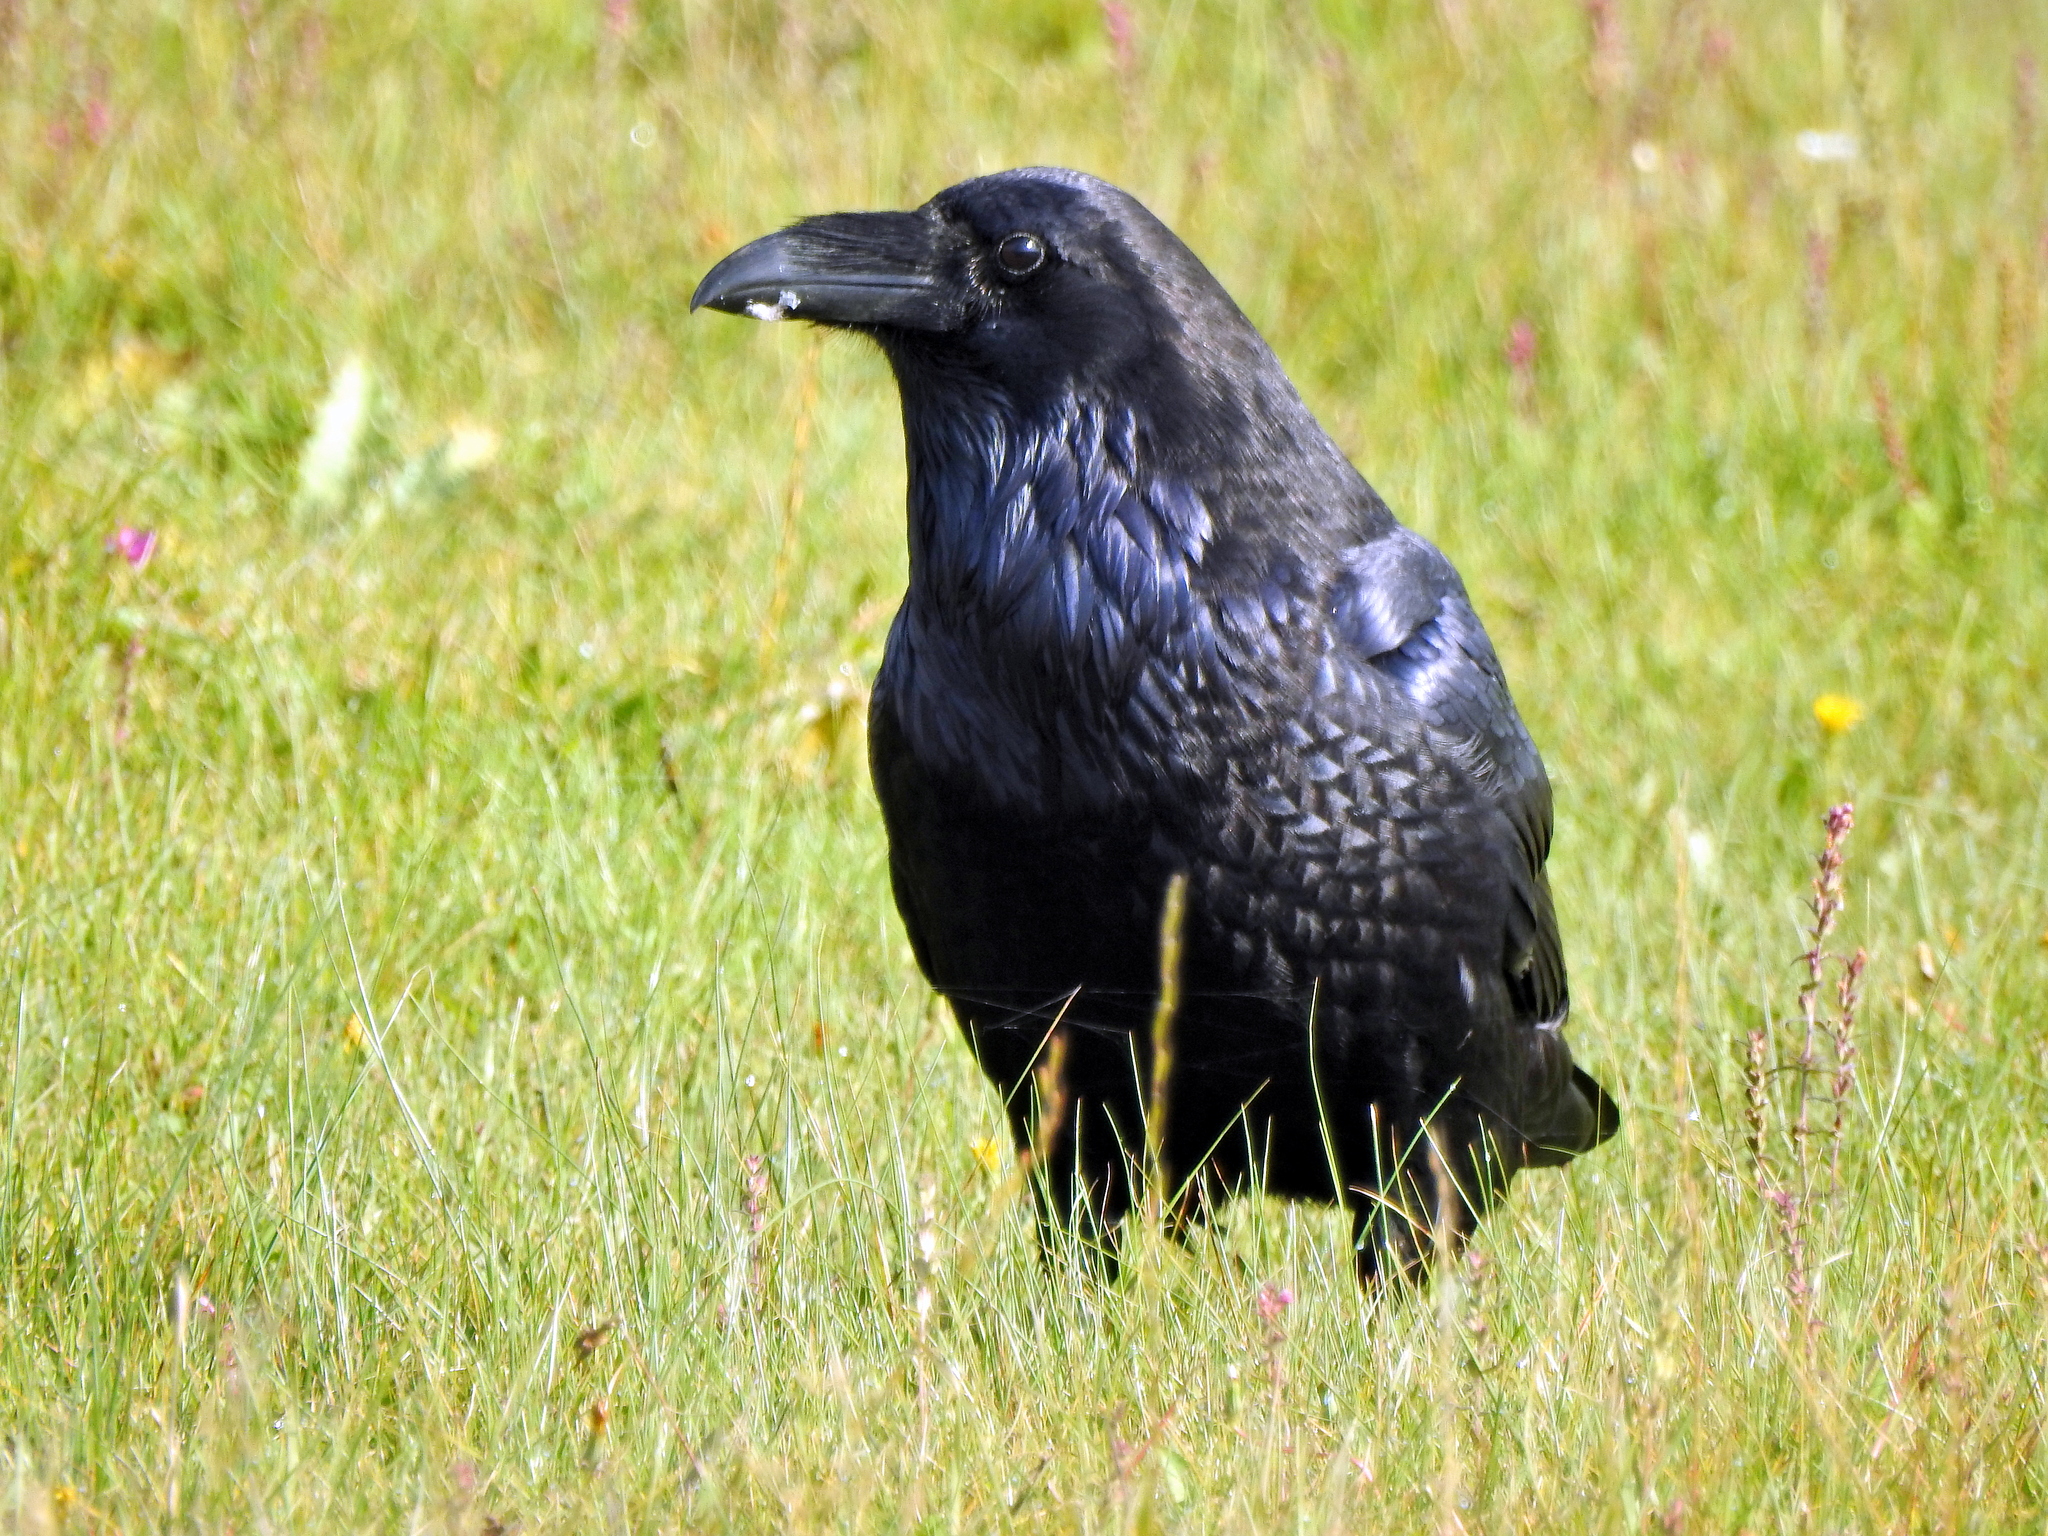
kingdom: Animalia
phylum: Chordata
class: Aves
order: Passeriformes
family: Corvidae
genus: Corvus
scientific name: Corvus corax
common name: Common raven
